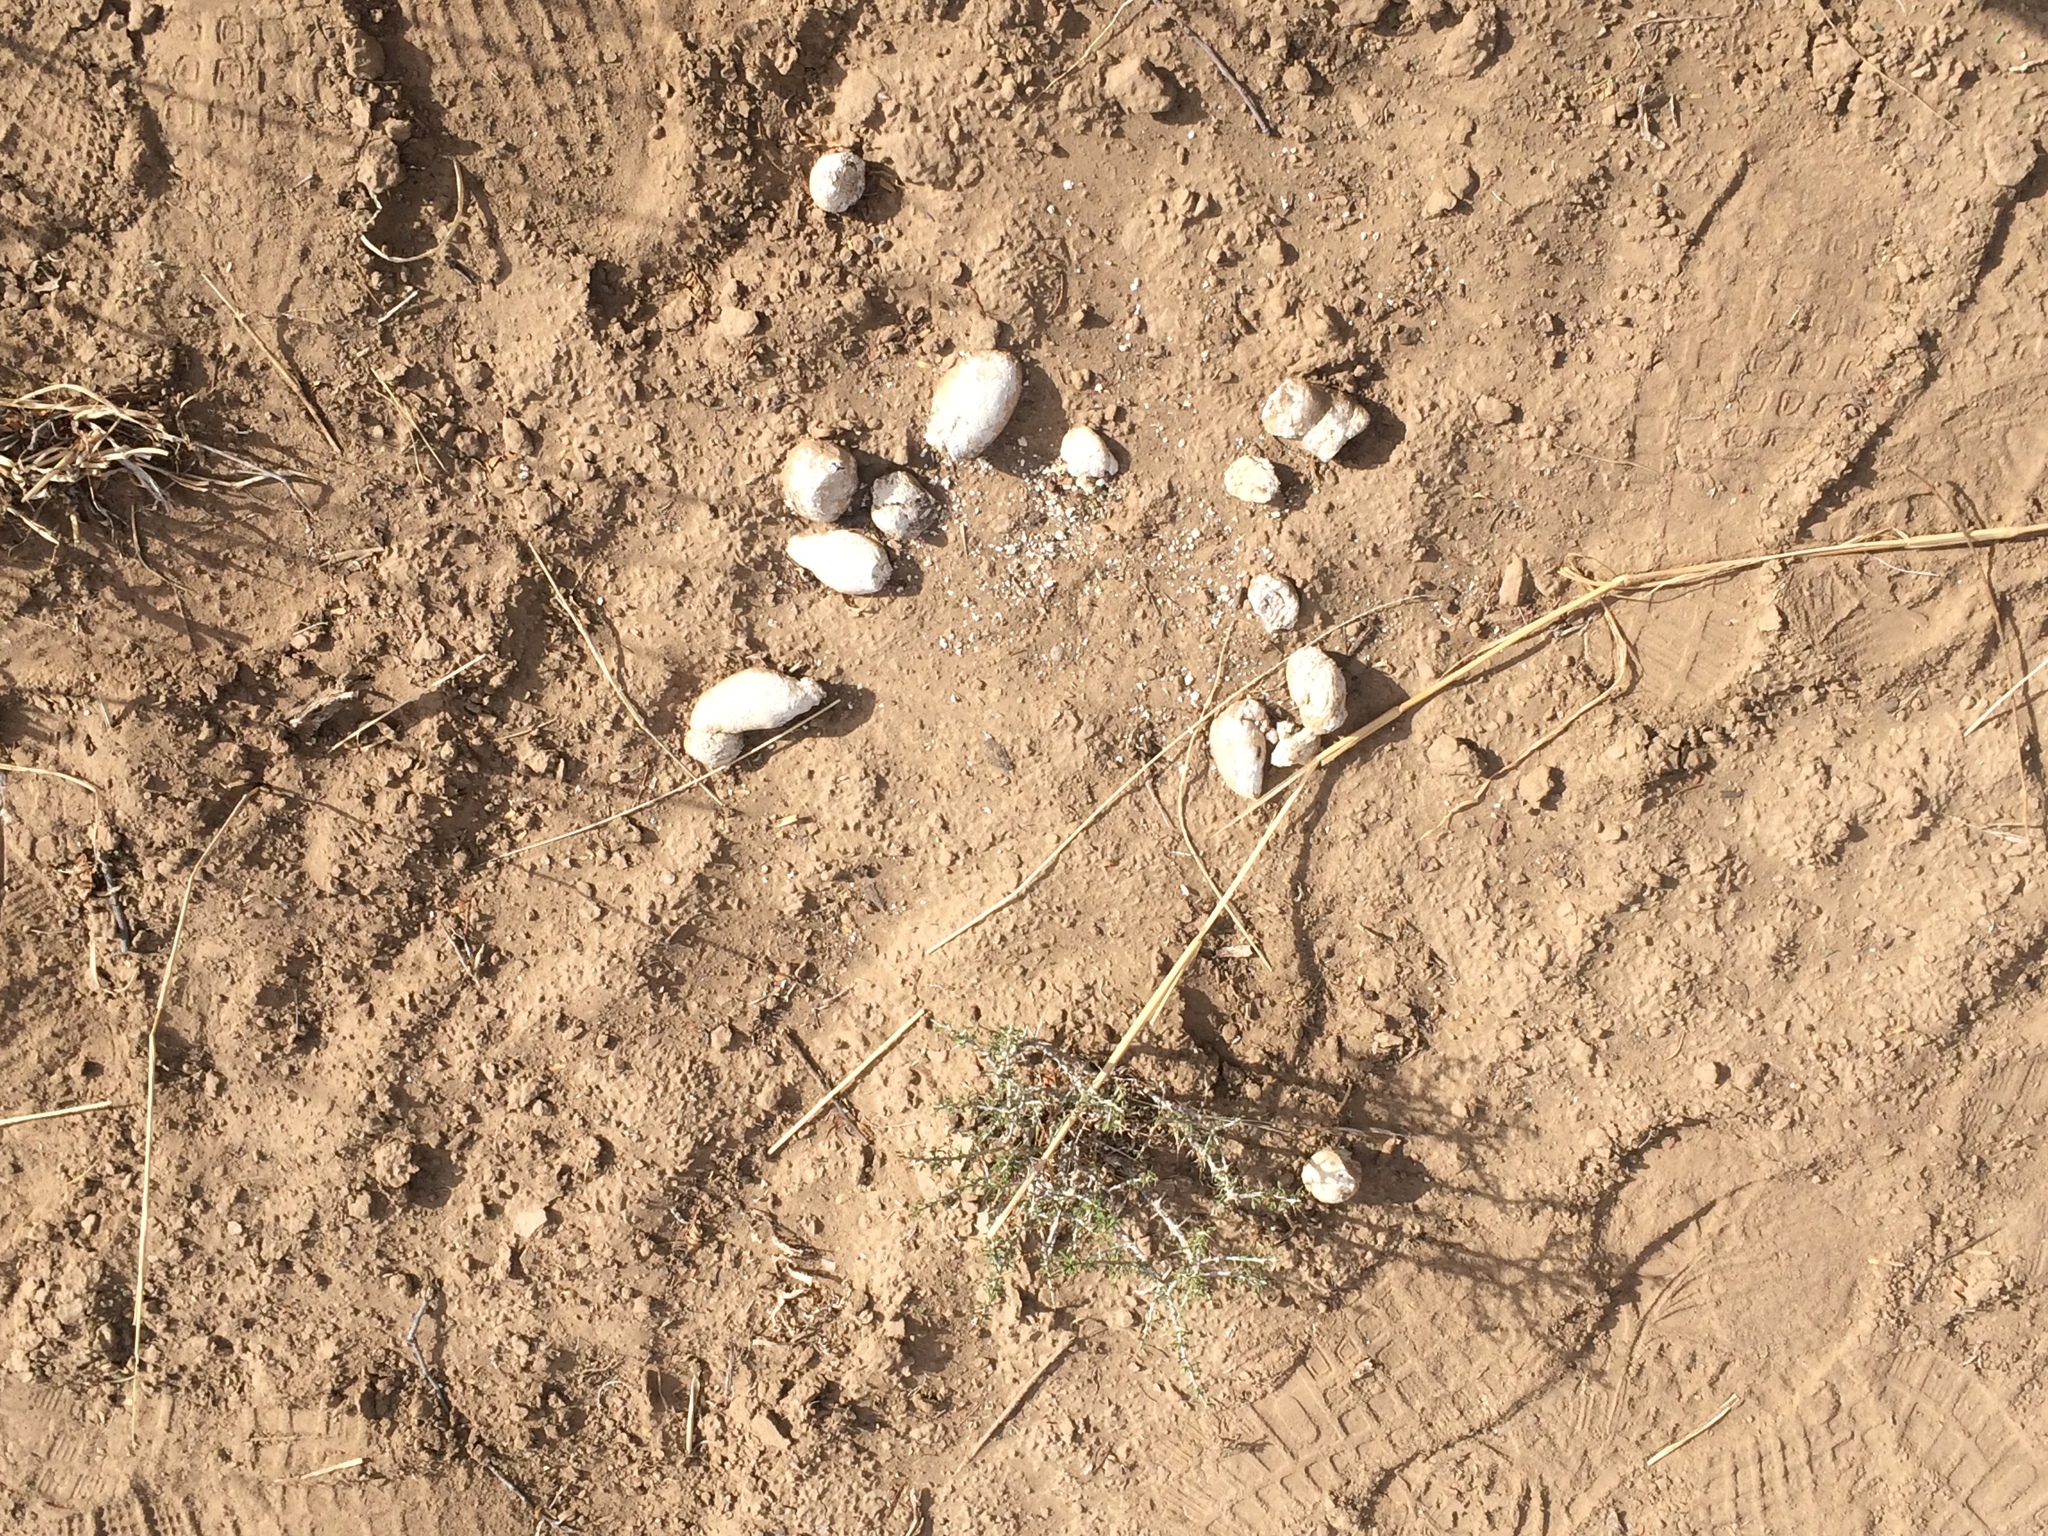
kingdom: Animalia
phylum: Chordata
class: Mammalia
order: Carnivora
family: Hyaenidae
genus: Hyaena
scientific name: Hyaena brunnea
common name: Brown hyena
